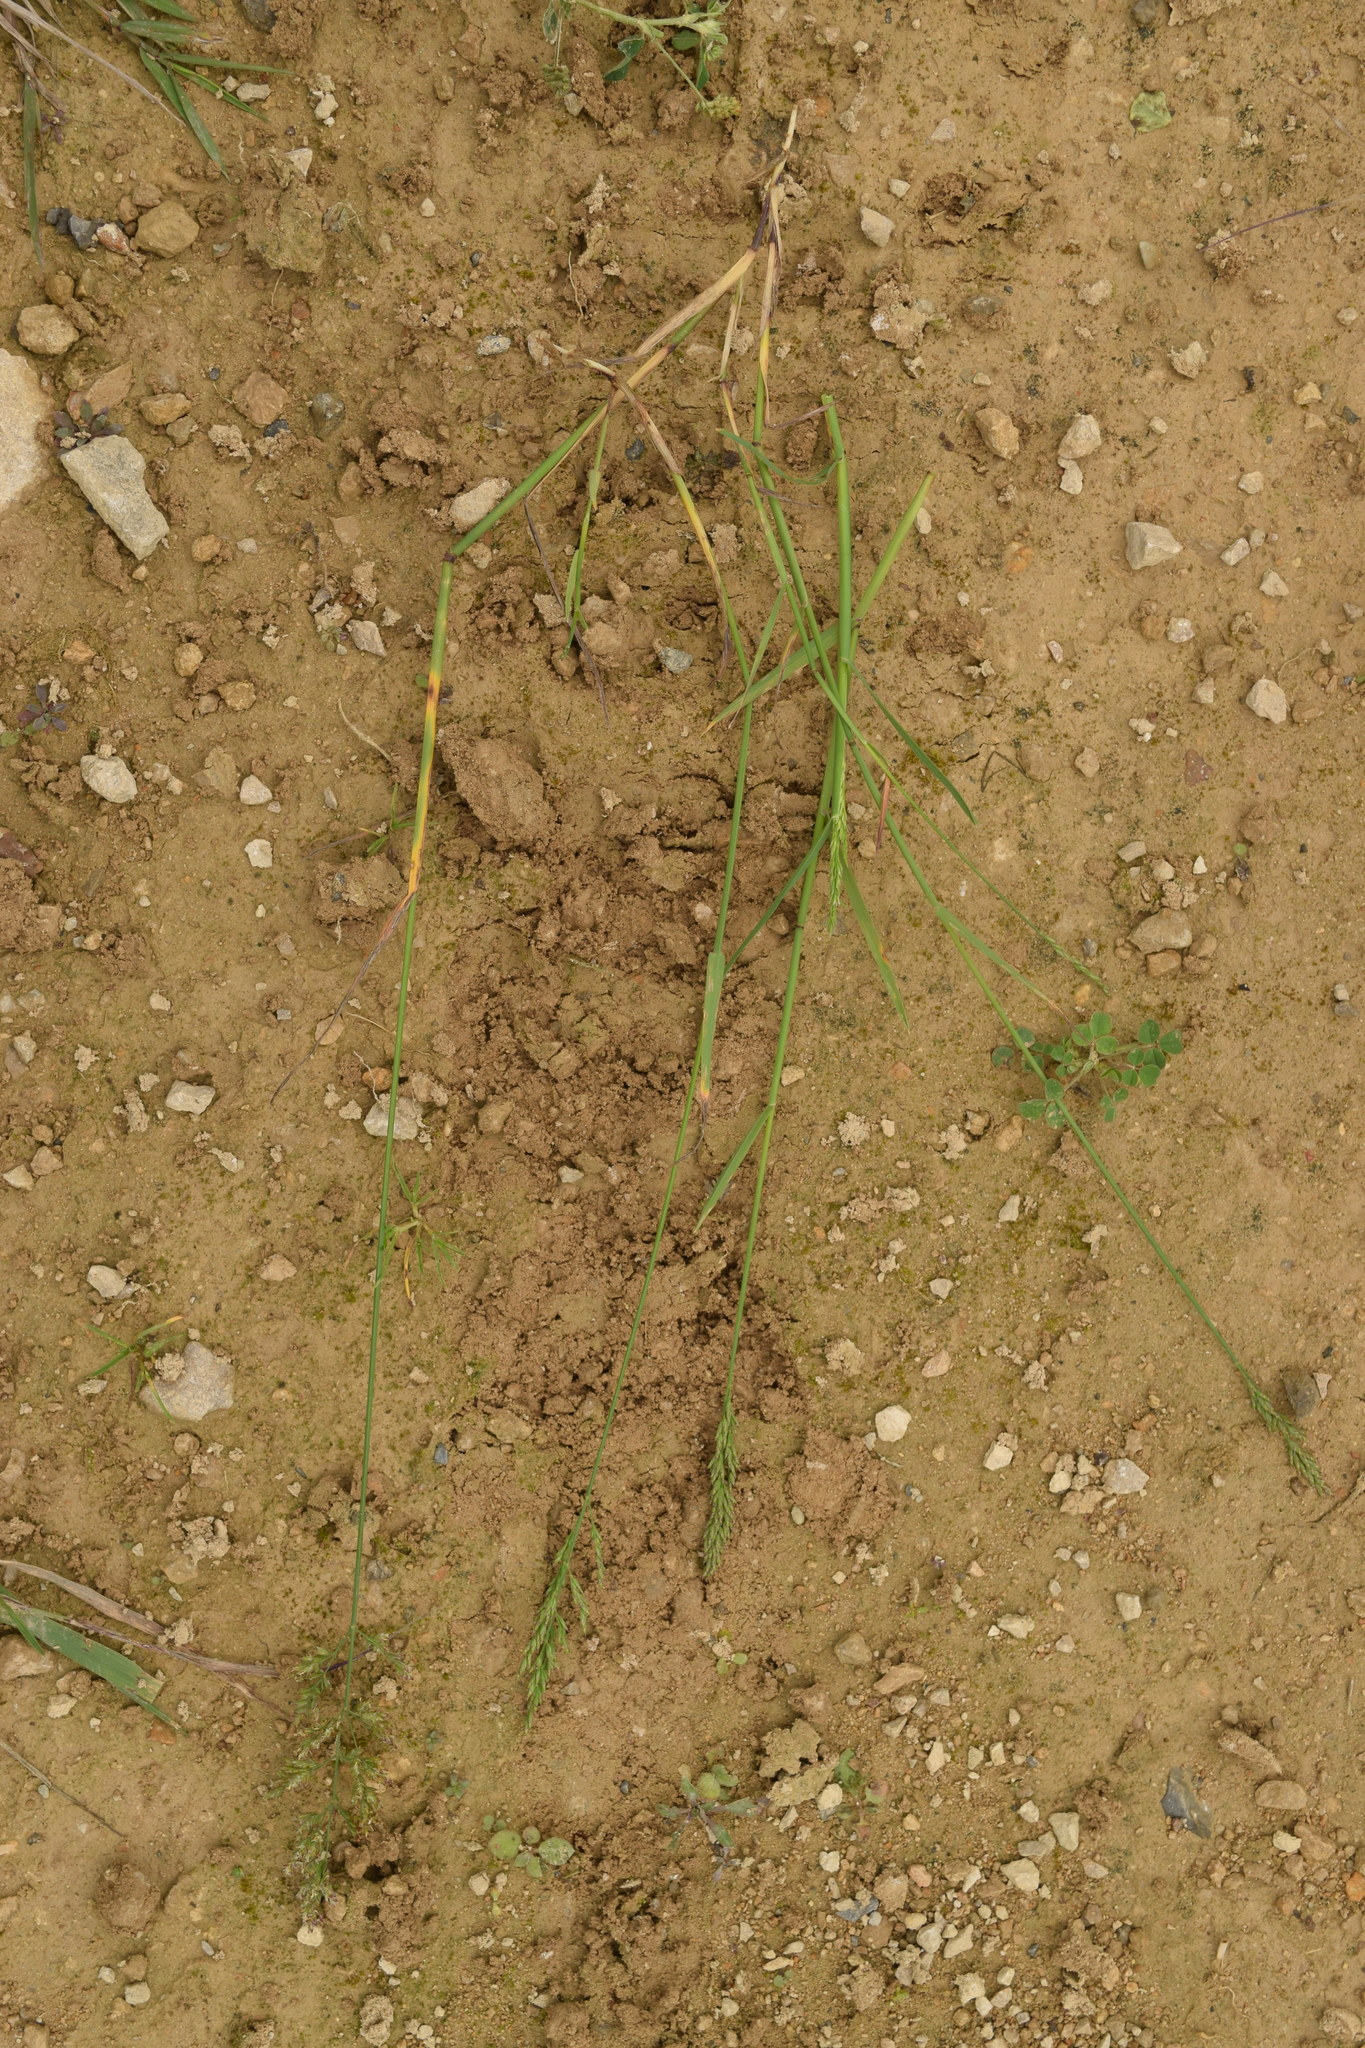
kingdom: Plantae
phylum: Tracheophyta
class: Liliopsida
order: Poales
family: Poaceae
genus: Poa
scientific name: Poa compressa
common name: Canada bluegrass
